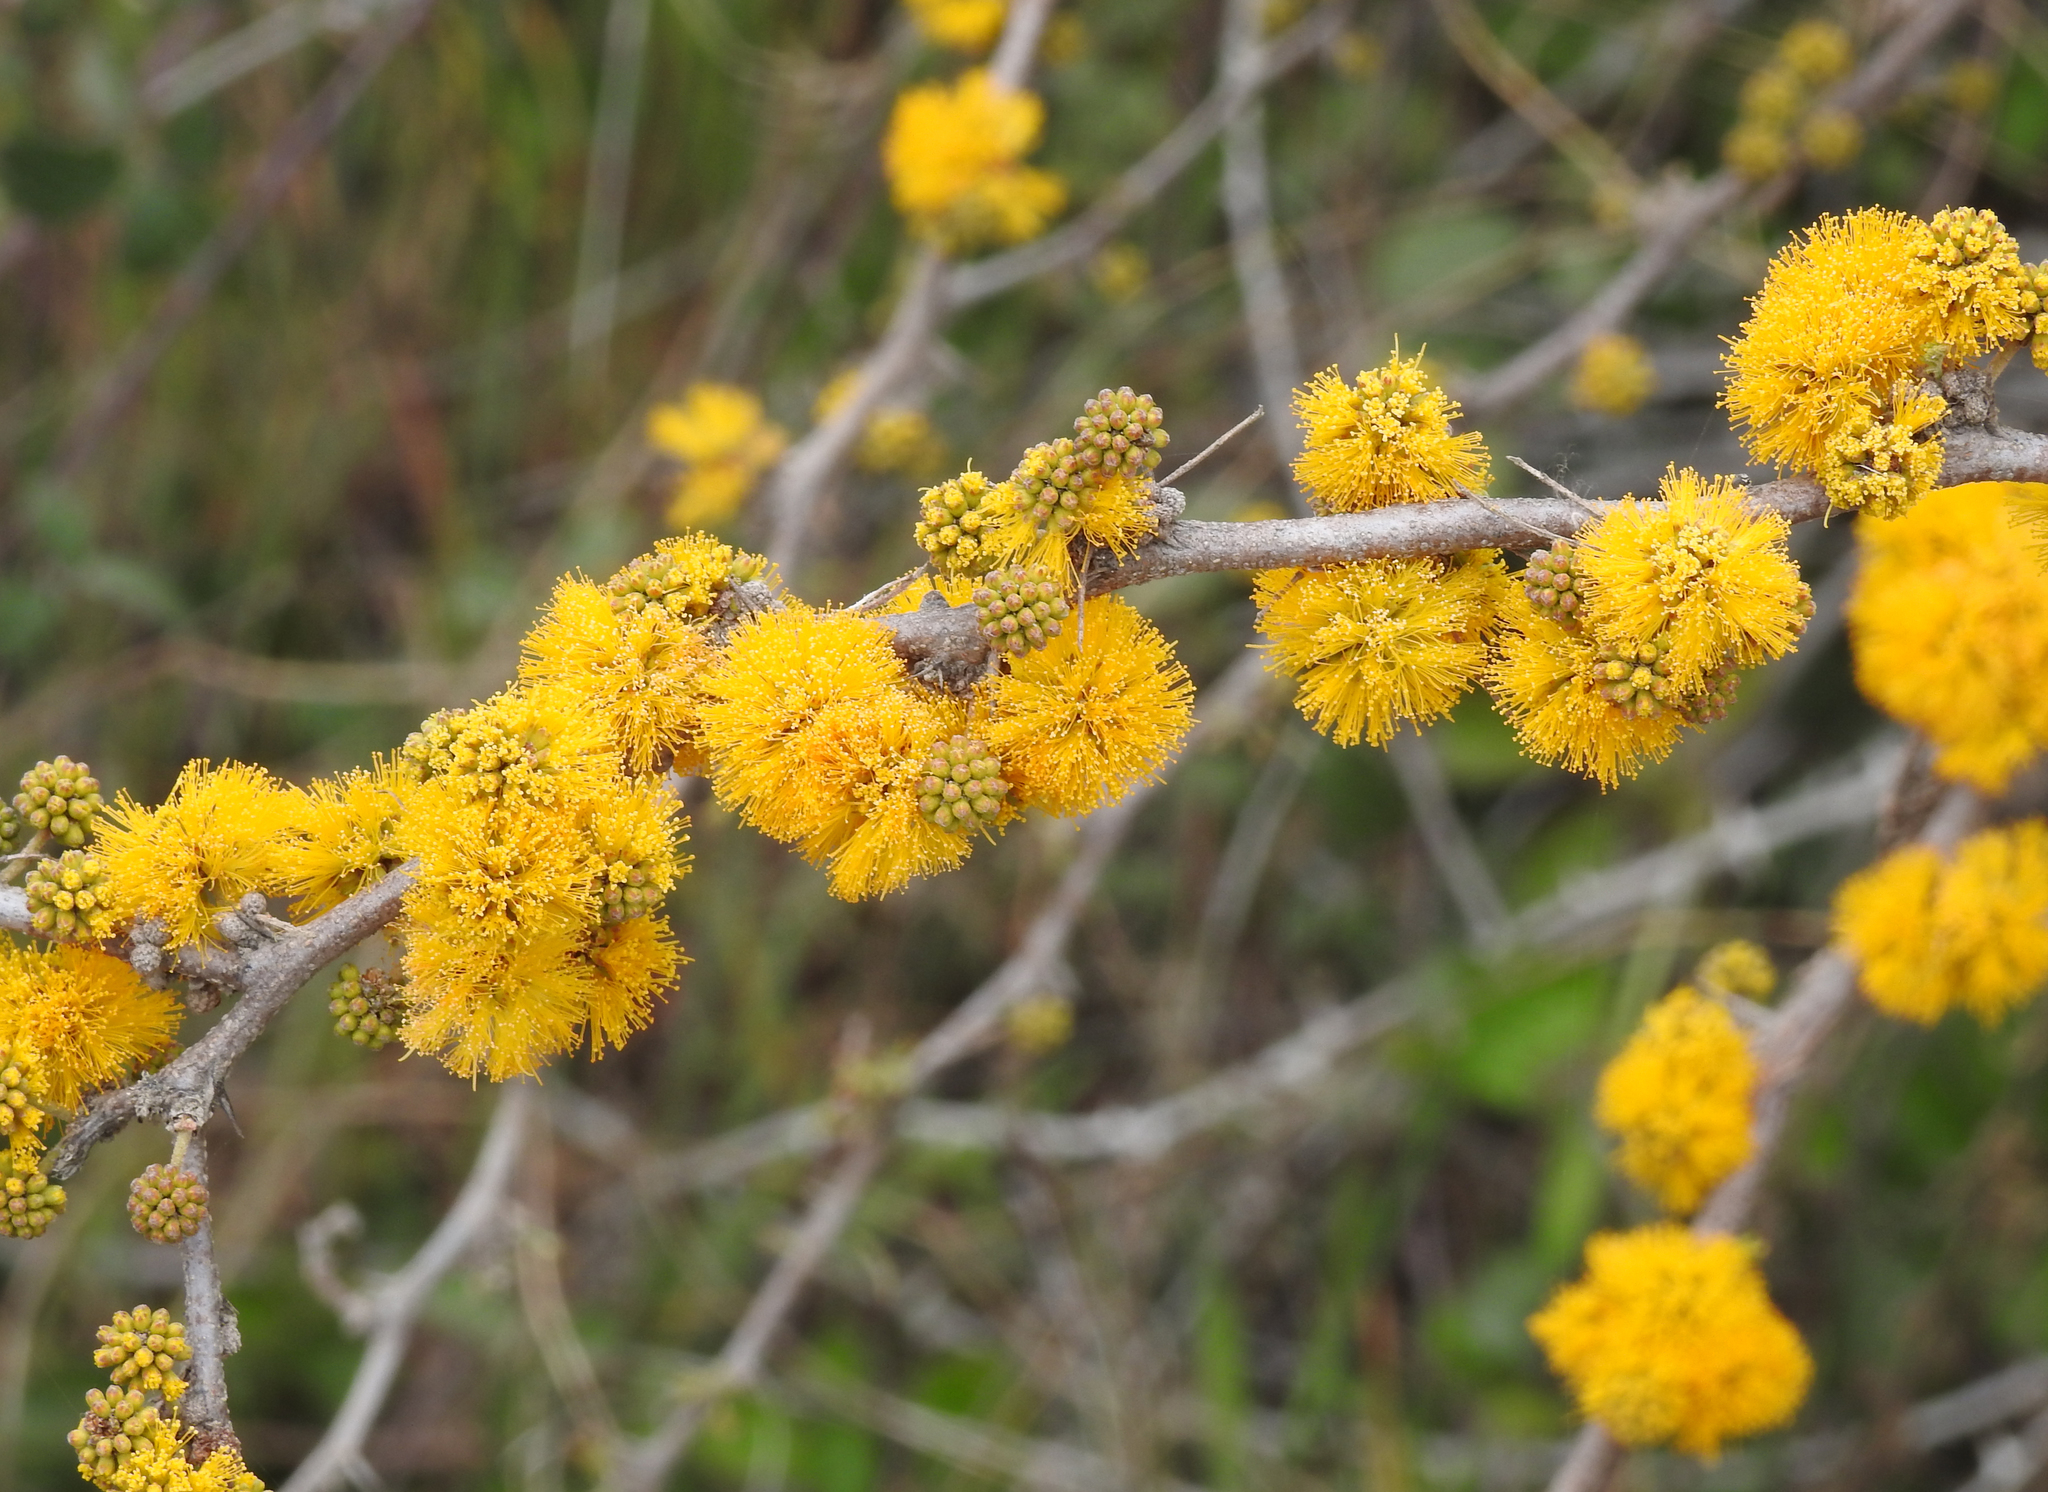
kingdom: Plantae
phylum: Tracheophyta
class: Magnoliopsida
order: Fabales
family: Fabaceae
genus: Vachellia
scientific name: Vachellia caven
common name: Roman cassie
